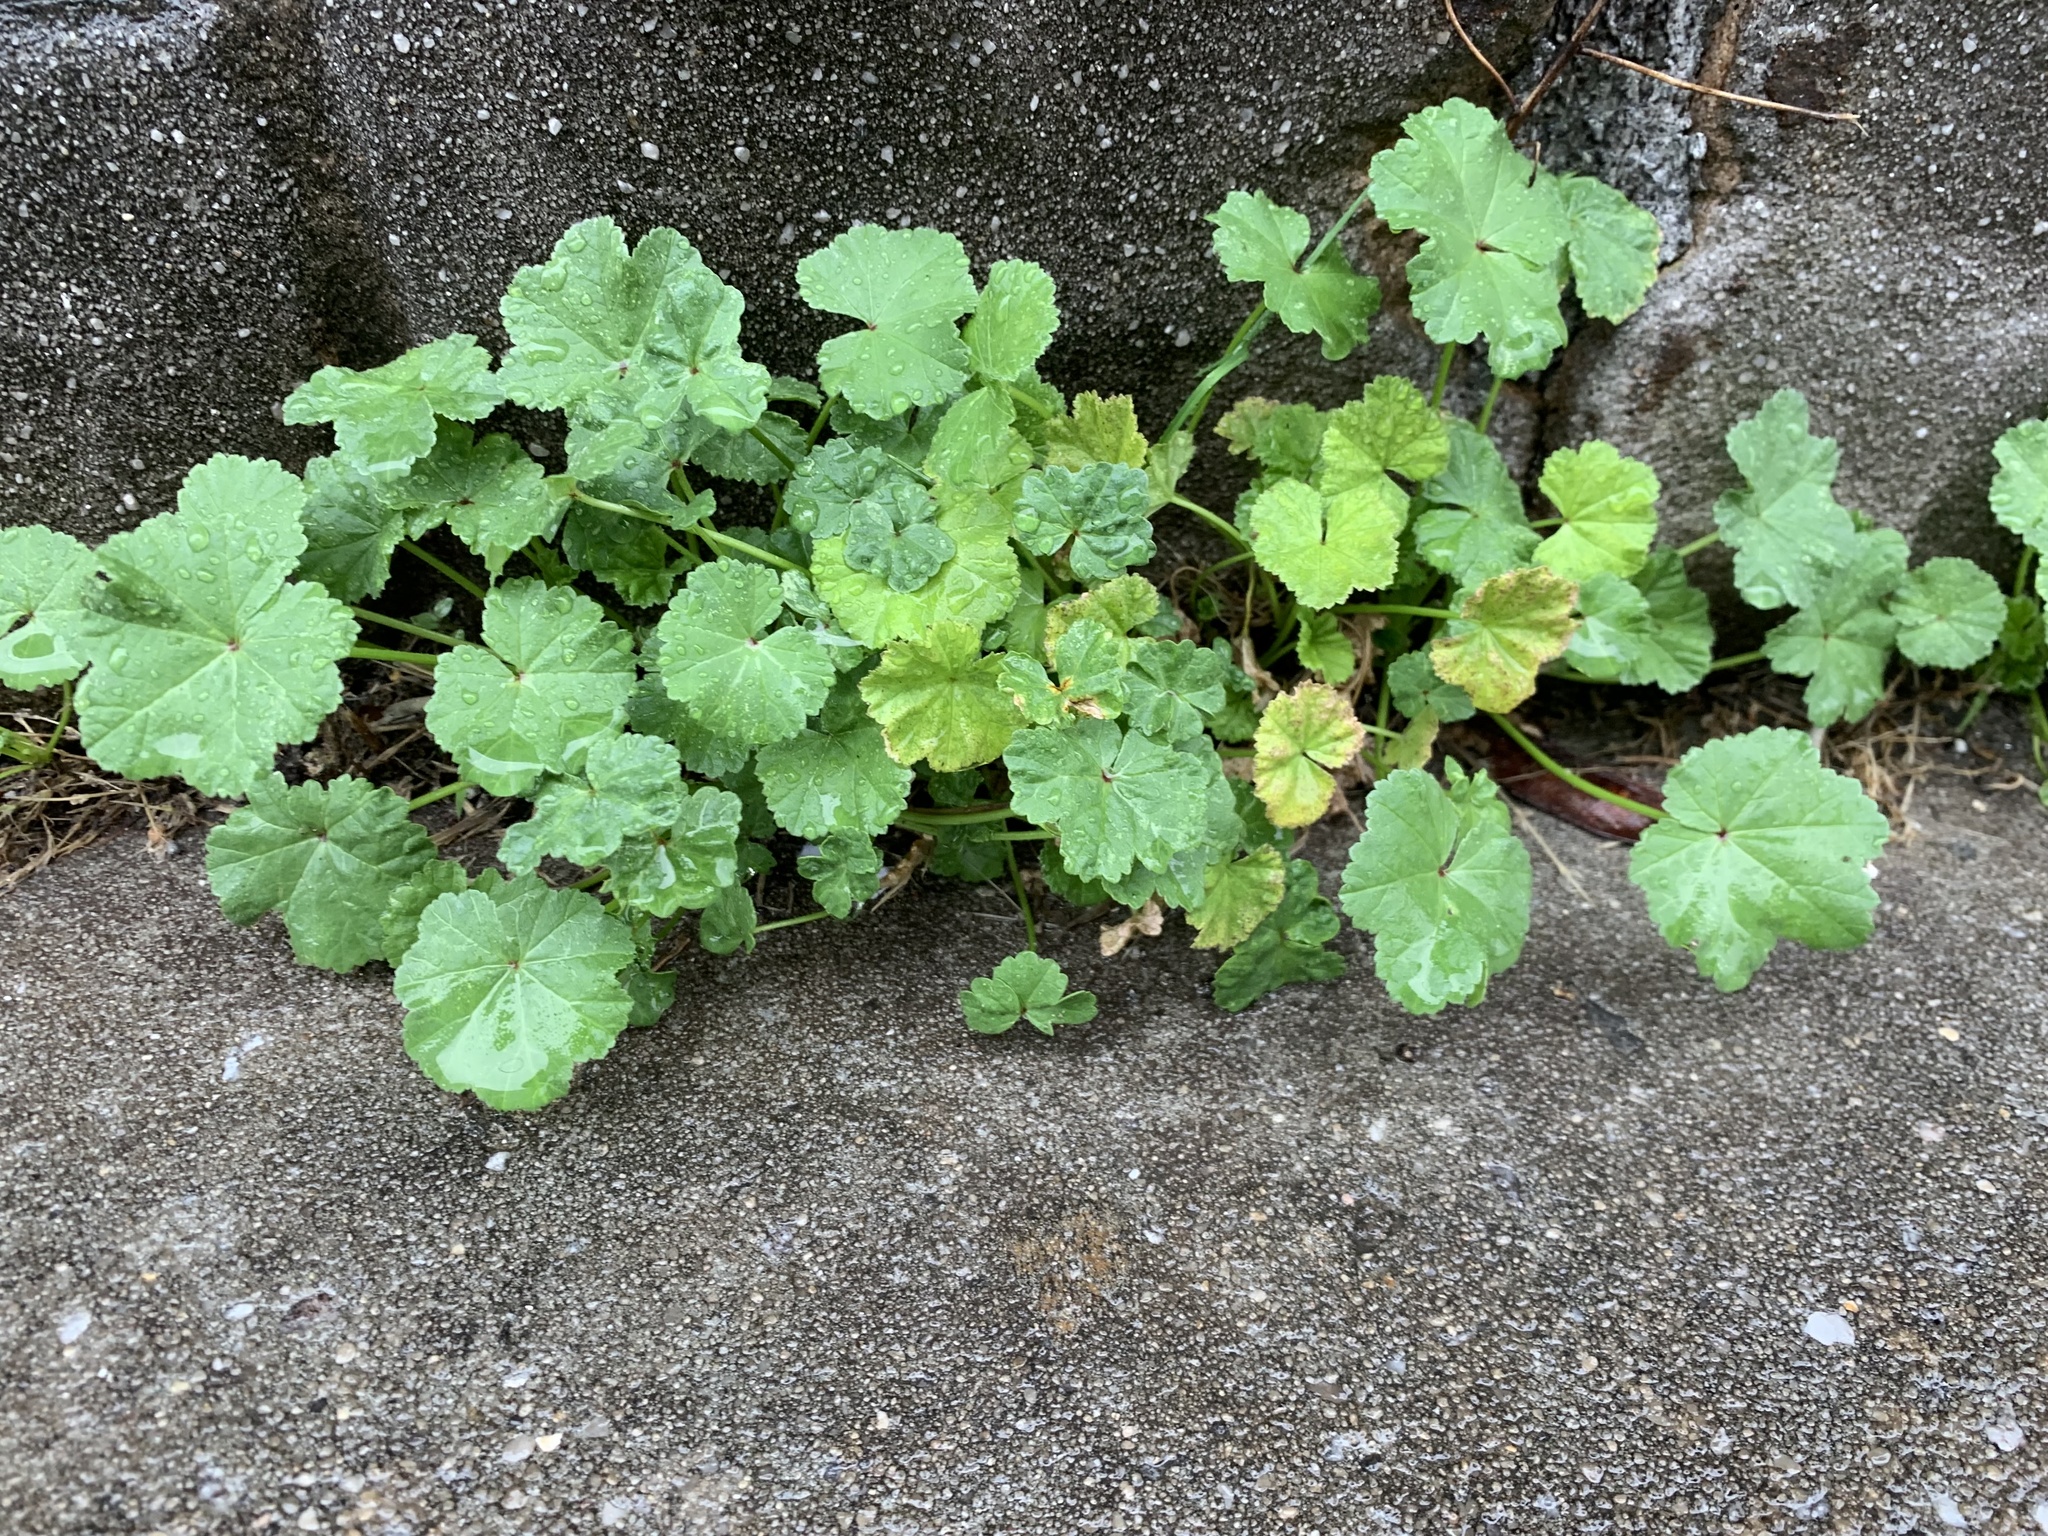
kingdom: Plantae
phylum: Tracheophyta
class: Magnoliopsida
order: Malvales
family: Malvaceae
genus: Malva
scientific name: Malva neglecta
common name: Common mallow
